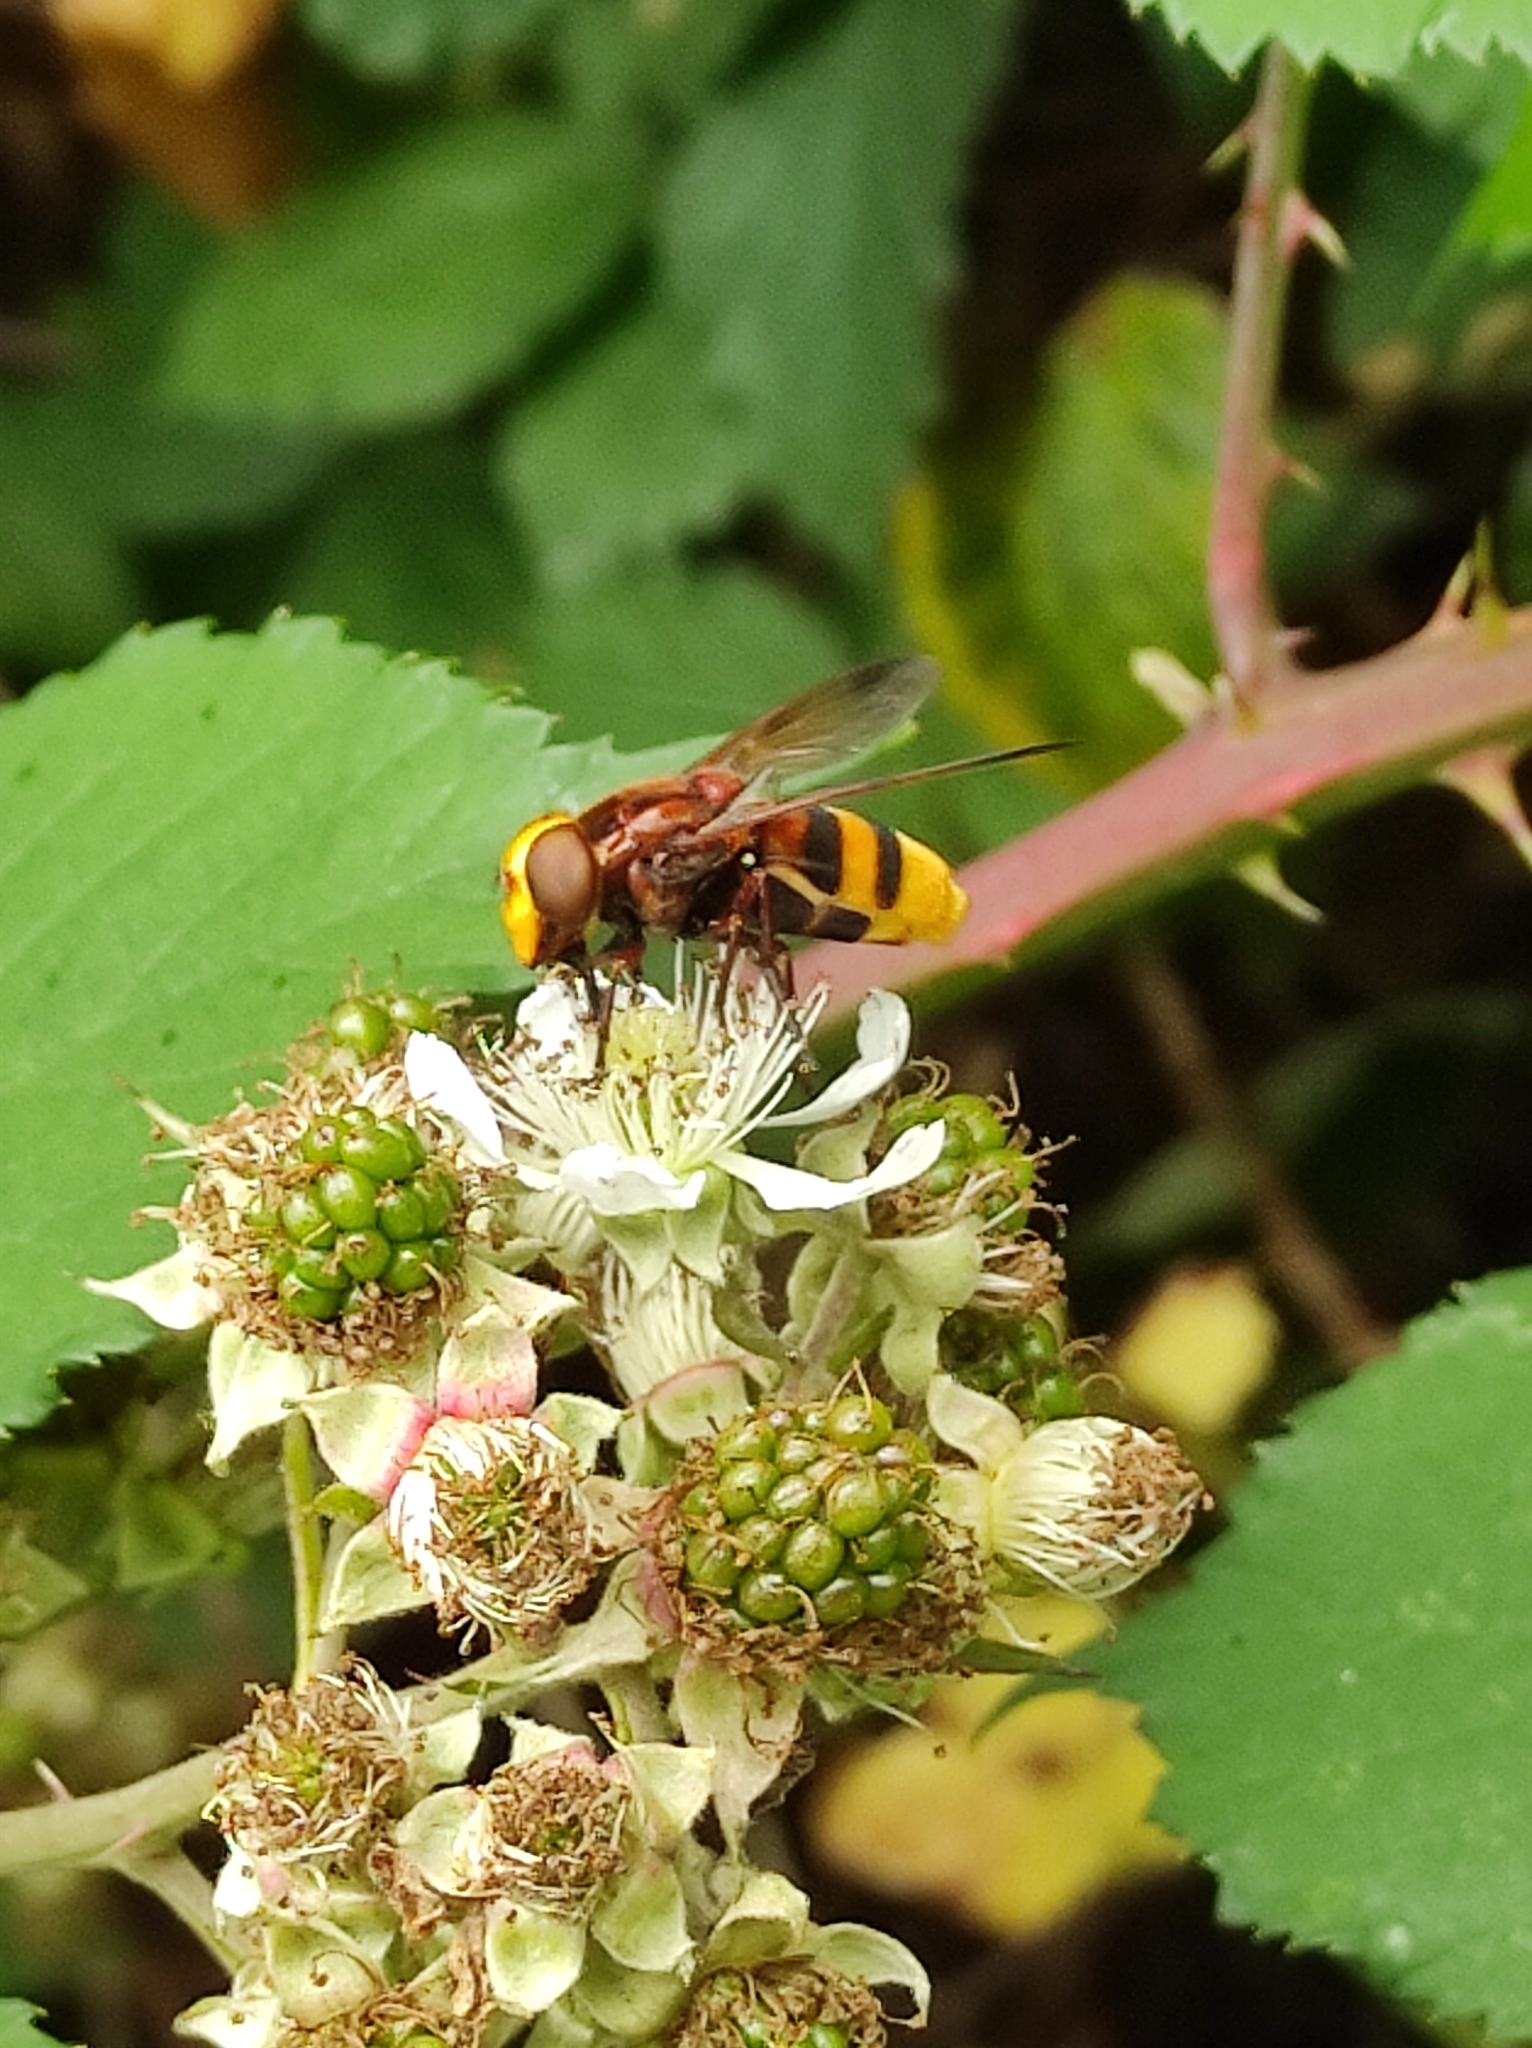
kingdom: Animalia
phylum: Arthropoda
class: Insecta
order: Diptera
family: Syrphidae
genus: Volucella
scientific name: Volucella zonaria
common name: Hornet hoverfly
